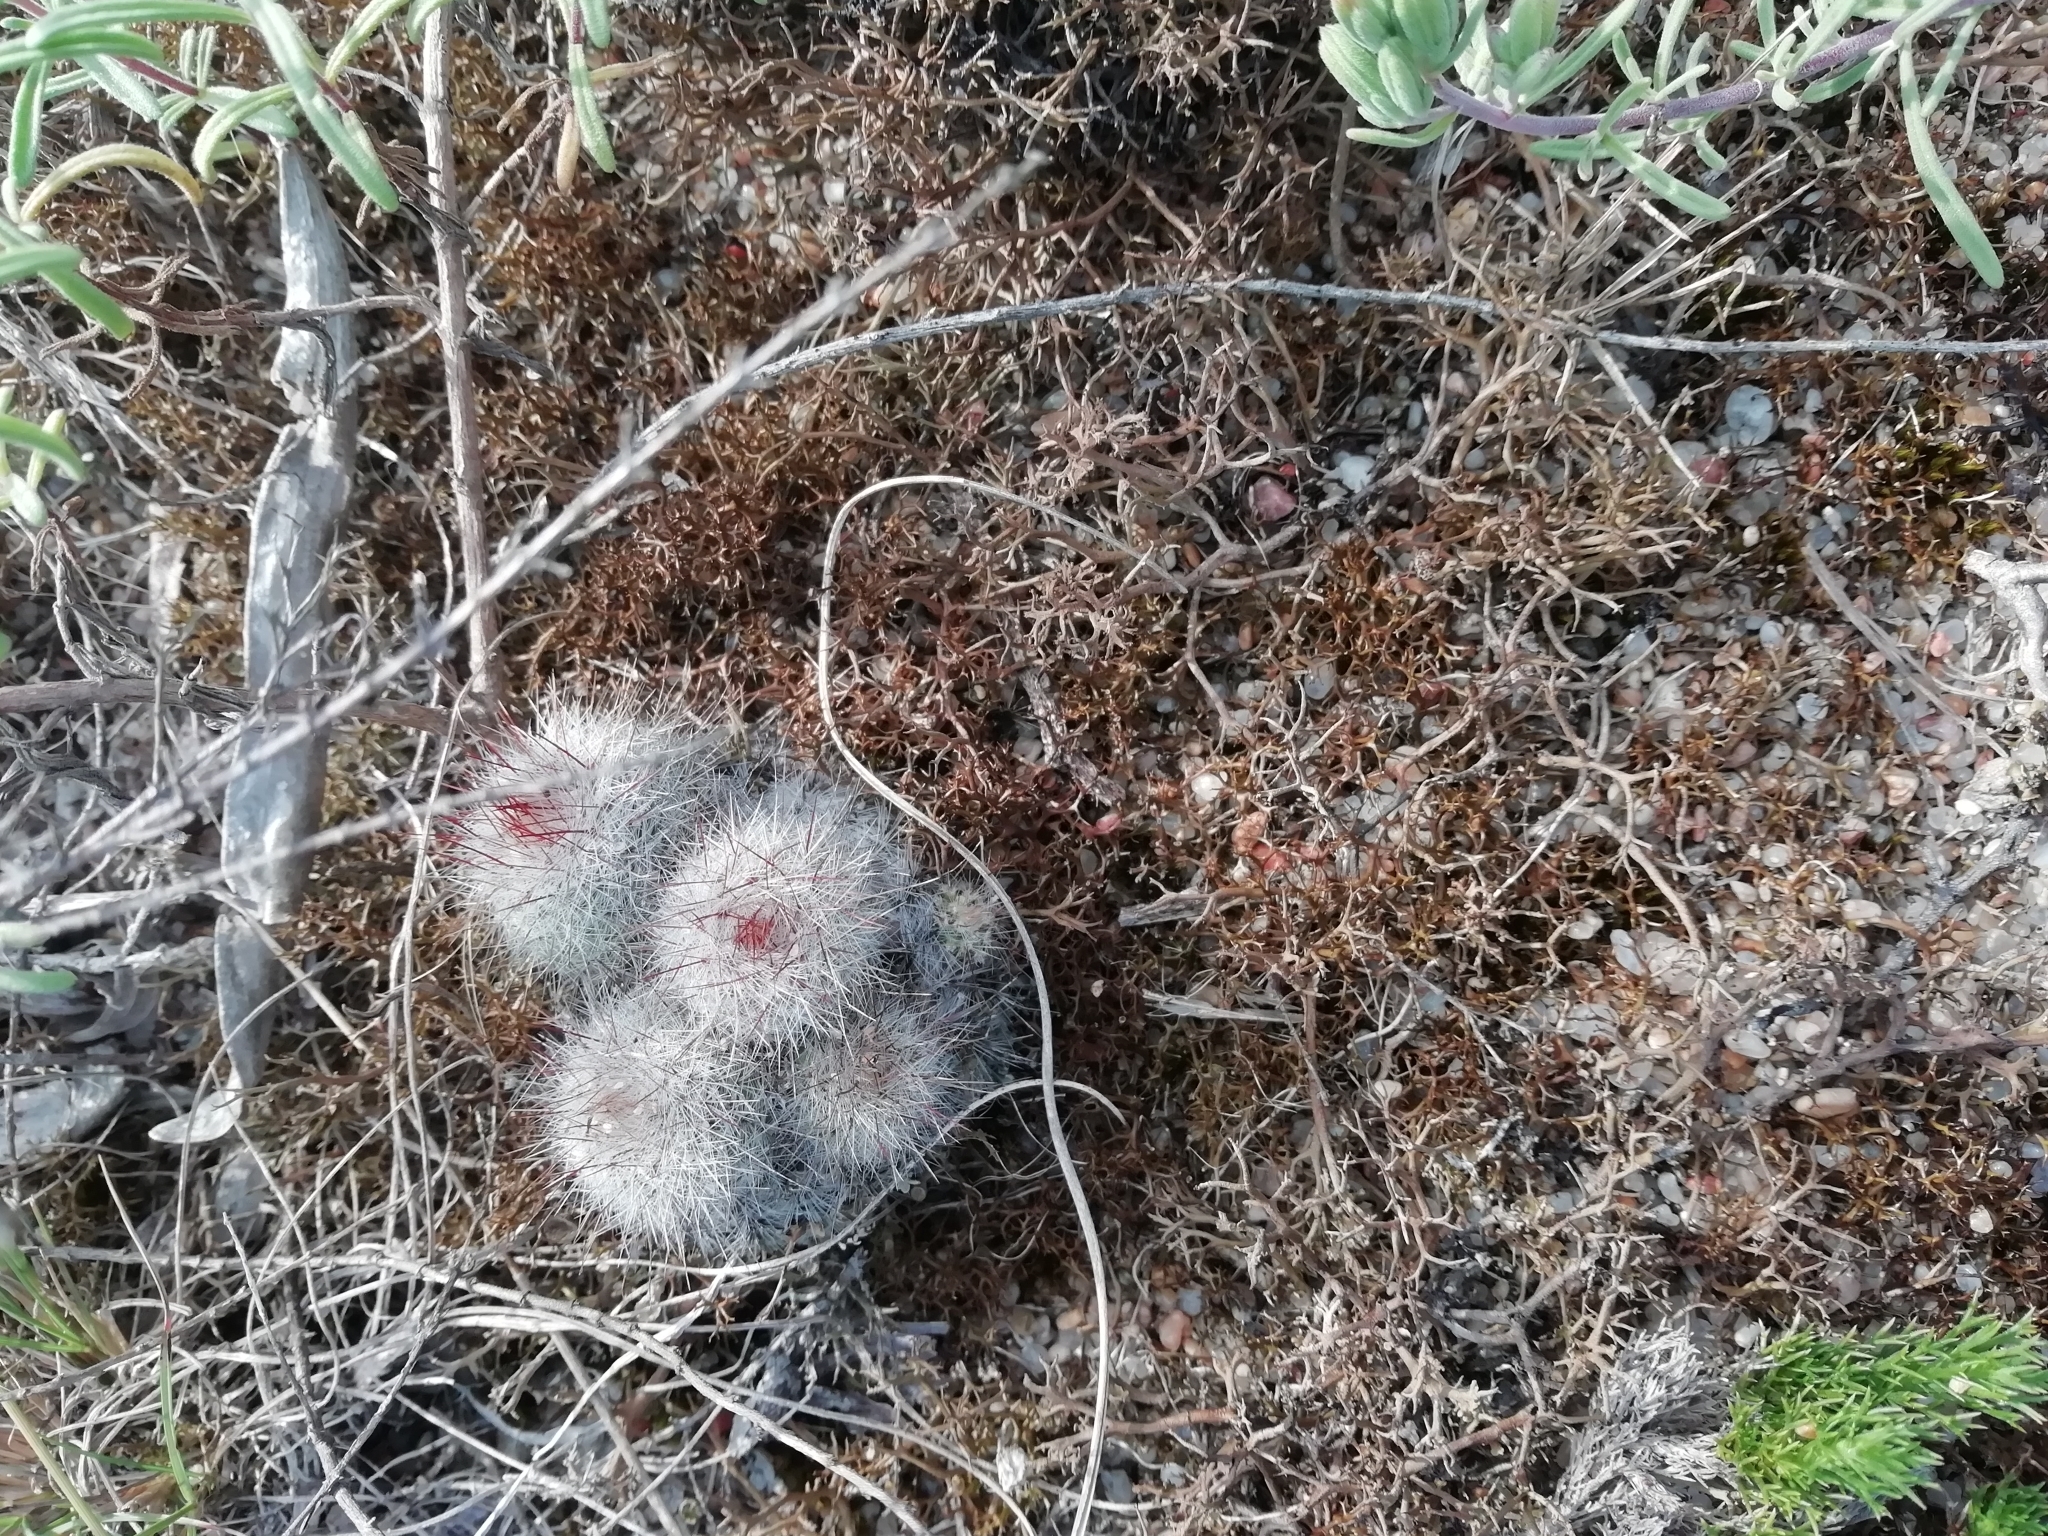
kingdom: Plantae
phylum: Tracheophyta
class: Magnoliopsida
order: Caryophyllales
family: Cactaceae
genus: Parodia
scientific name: Parodia scopa
